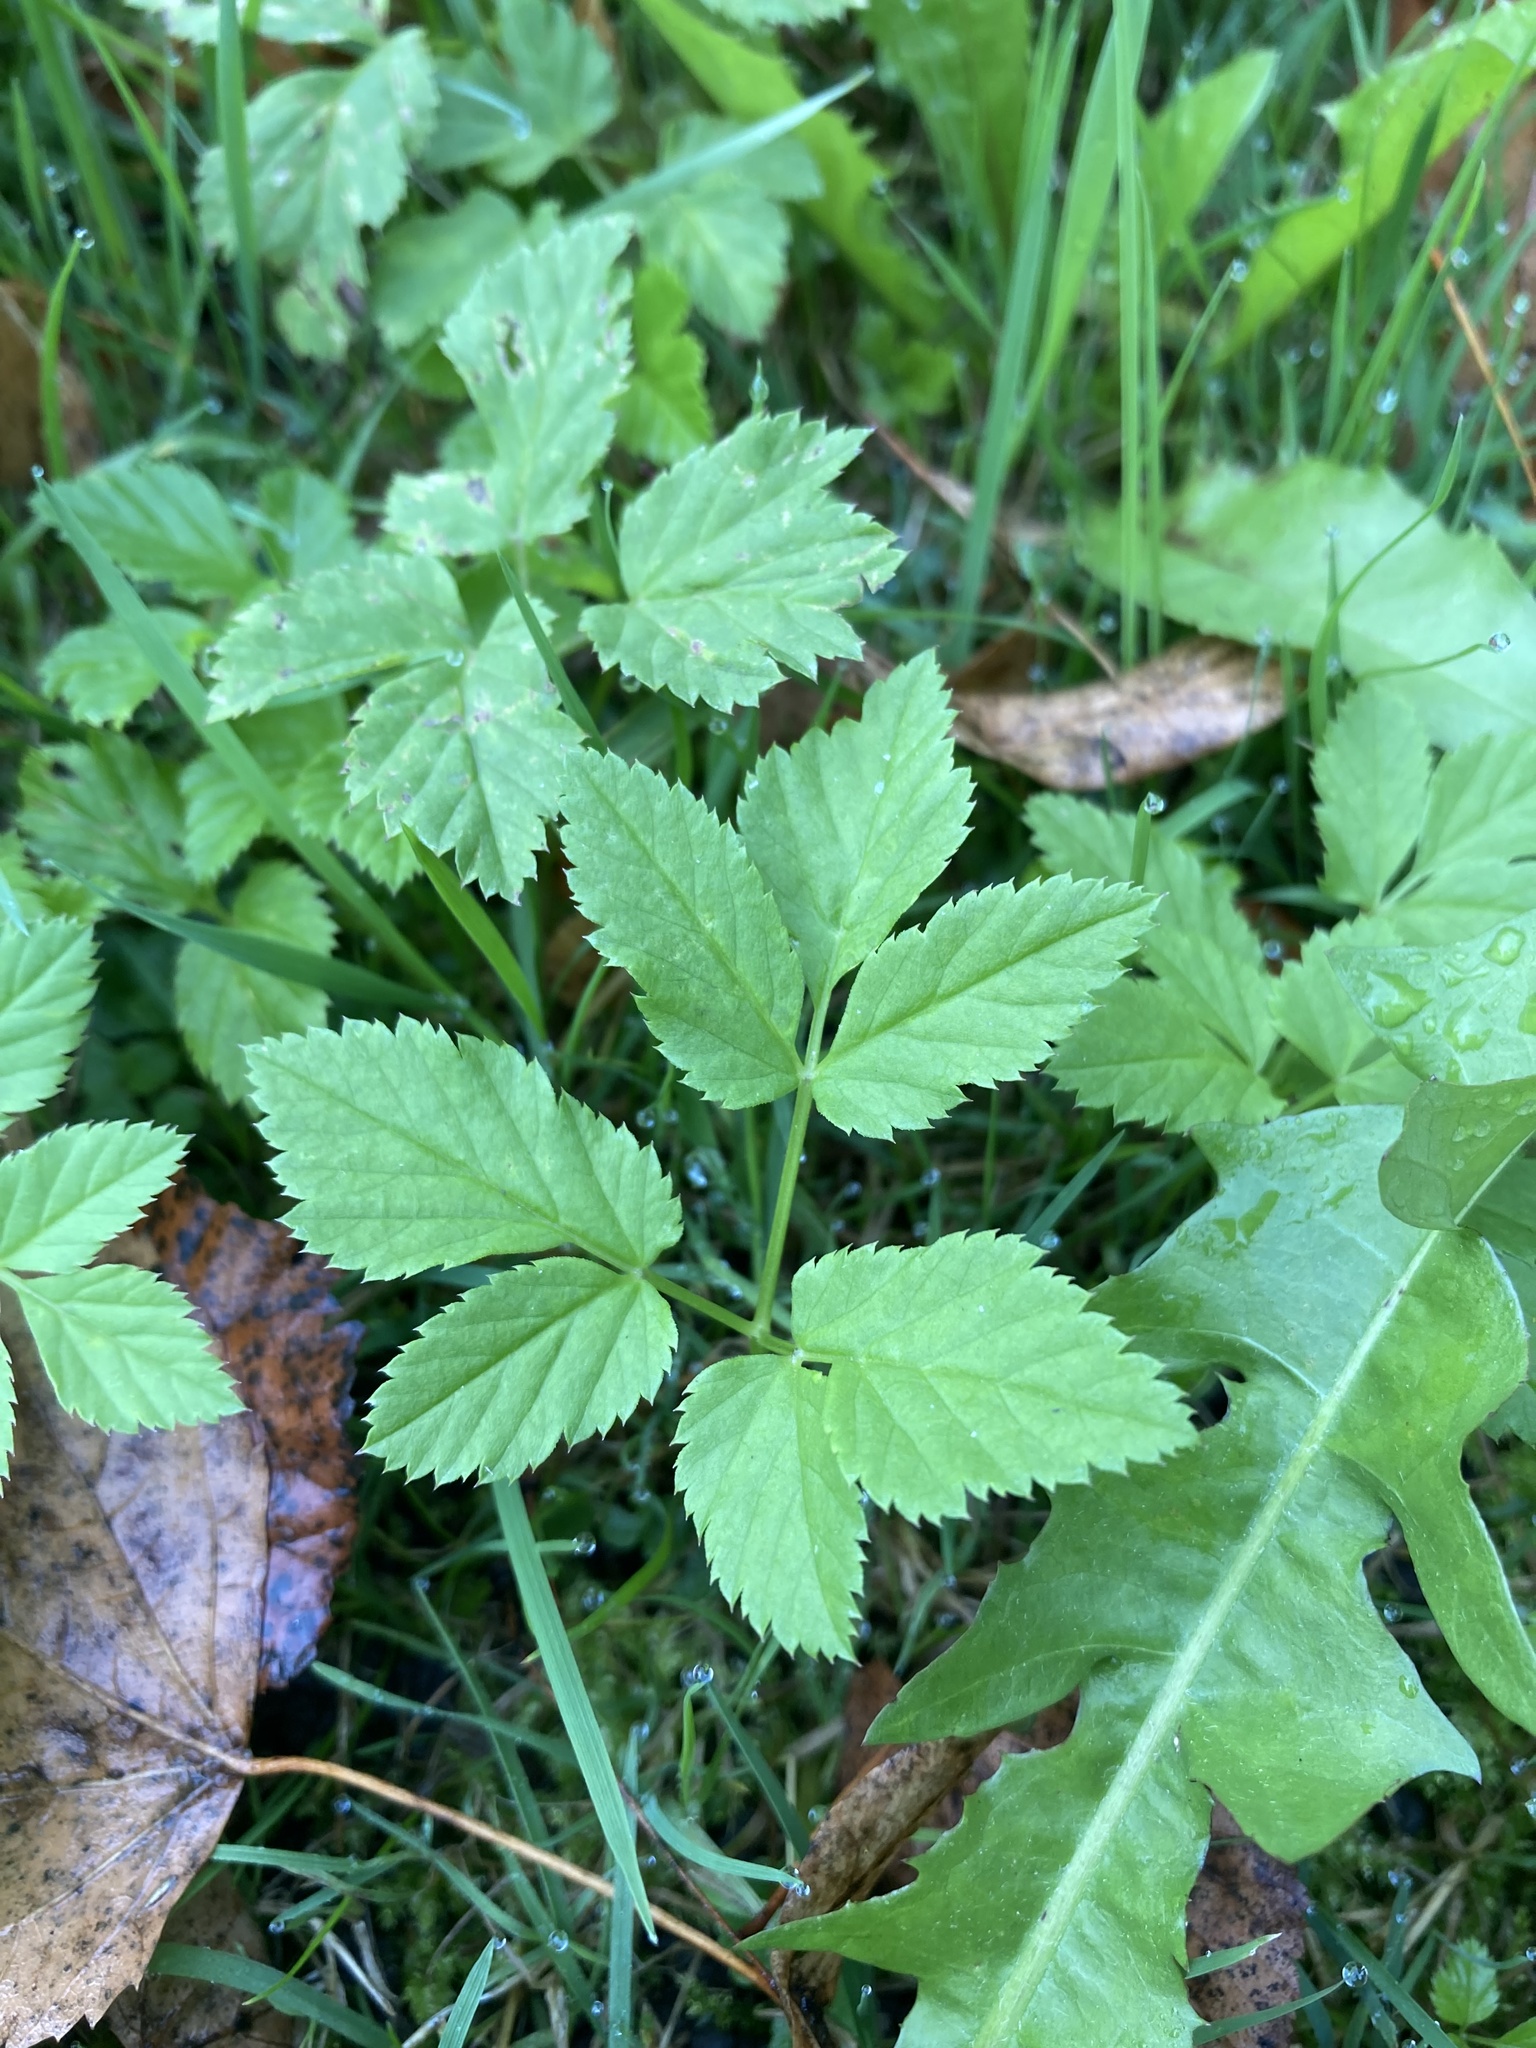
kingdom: Plantae
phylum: Tracheophyta
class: Magnoliopsida
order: Apiales
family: Apiaceae
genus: Aegopodium
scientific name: Aegopodium podagraria
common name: Ground-elder
